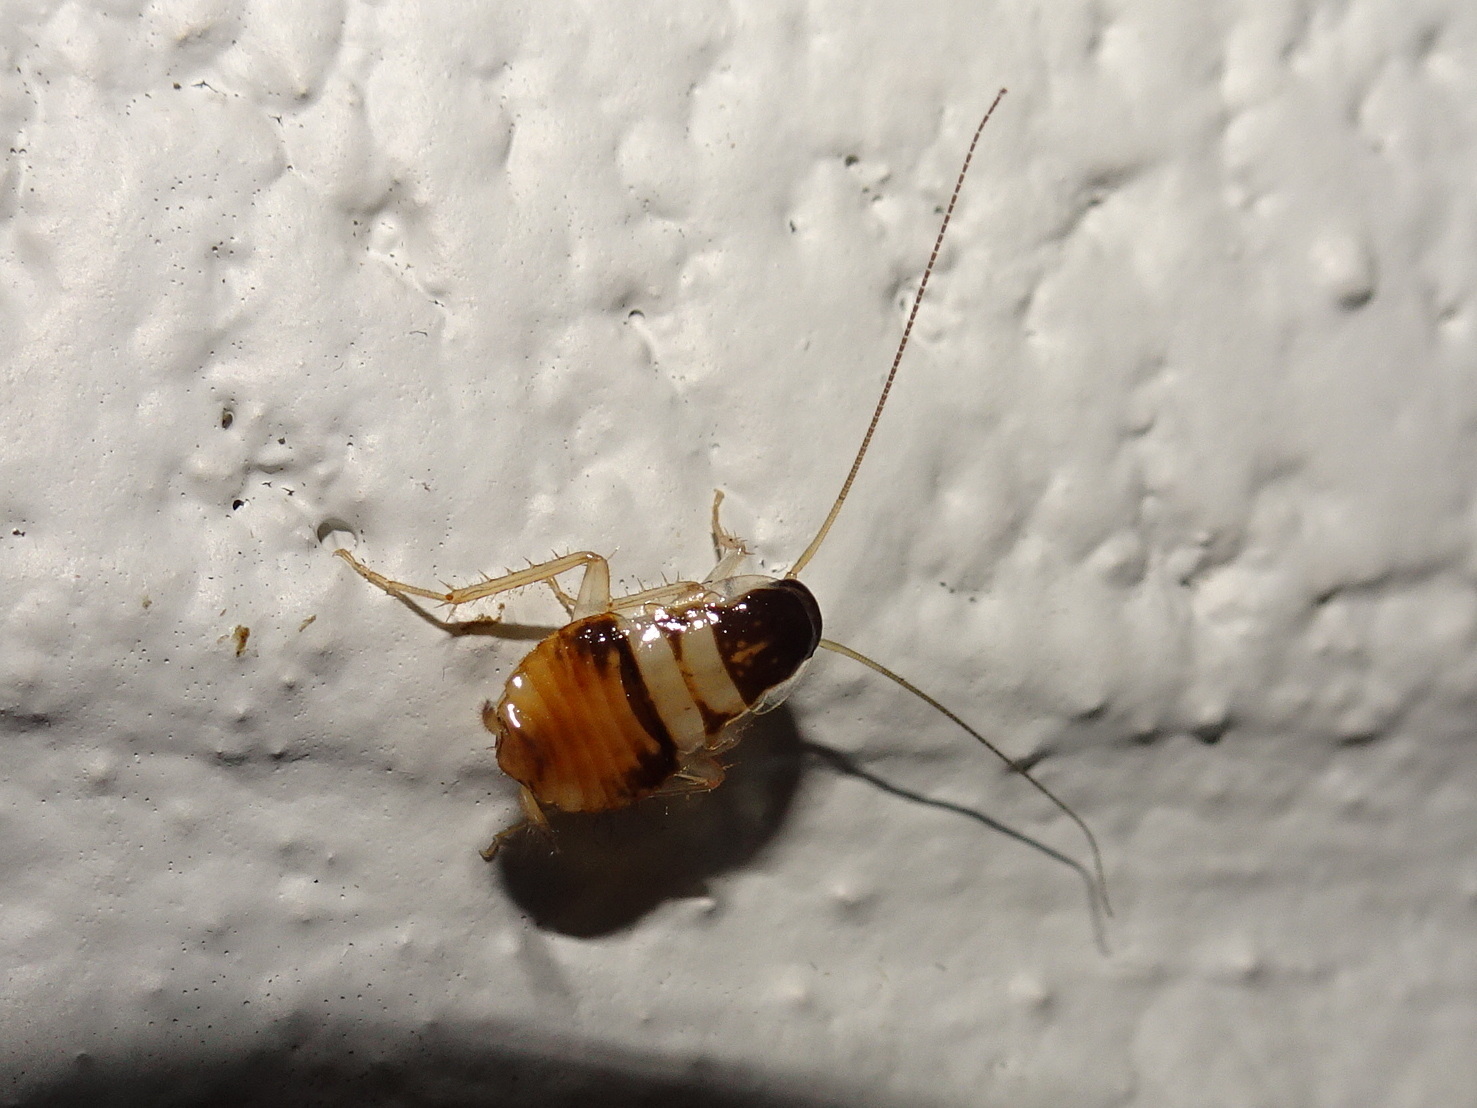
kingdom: Animalia
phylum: Arthropoda
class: Insecta
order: Blattodea
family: Ectobiidae
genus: Supella
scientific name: Supella longipalpa
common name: Brown-banded cockroach
